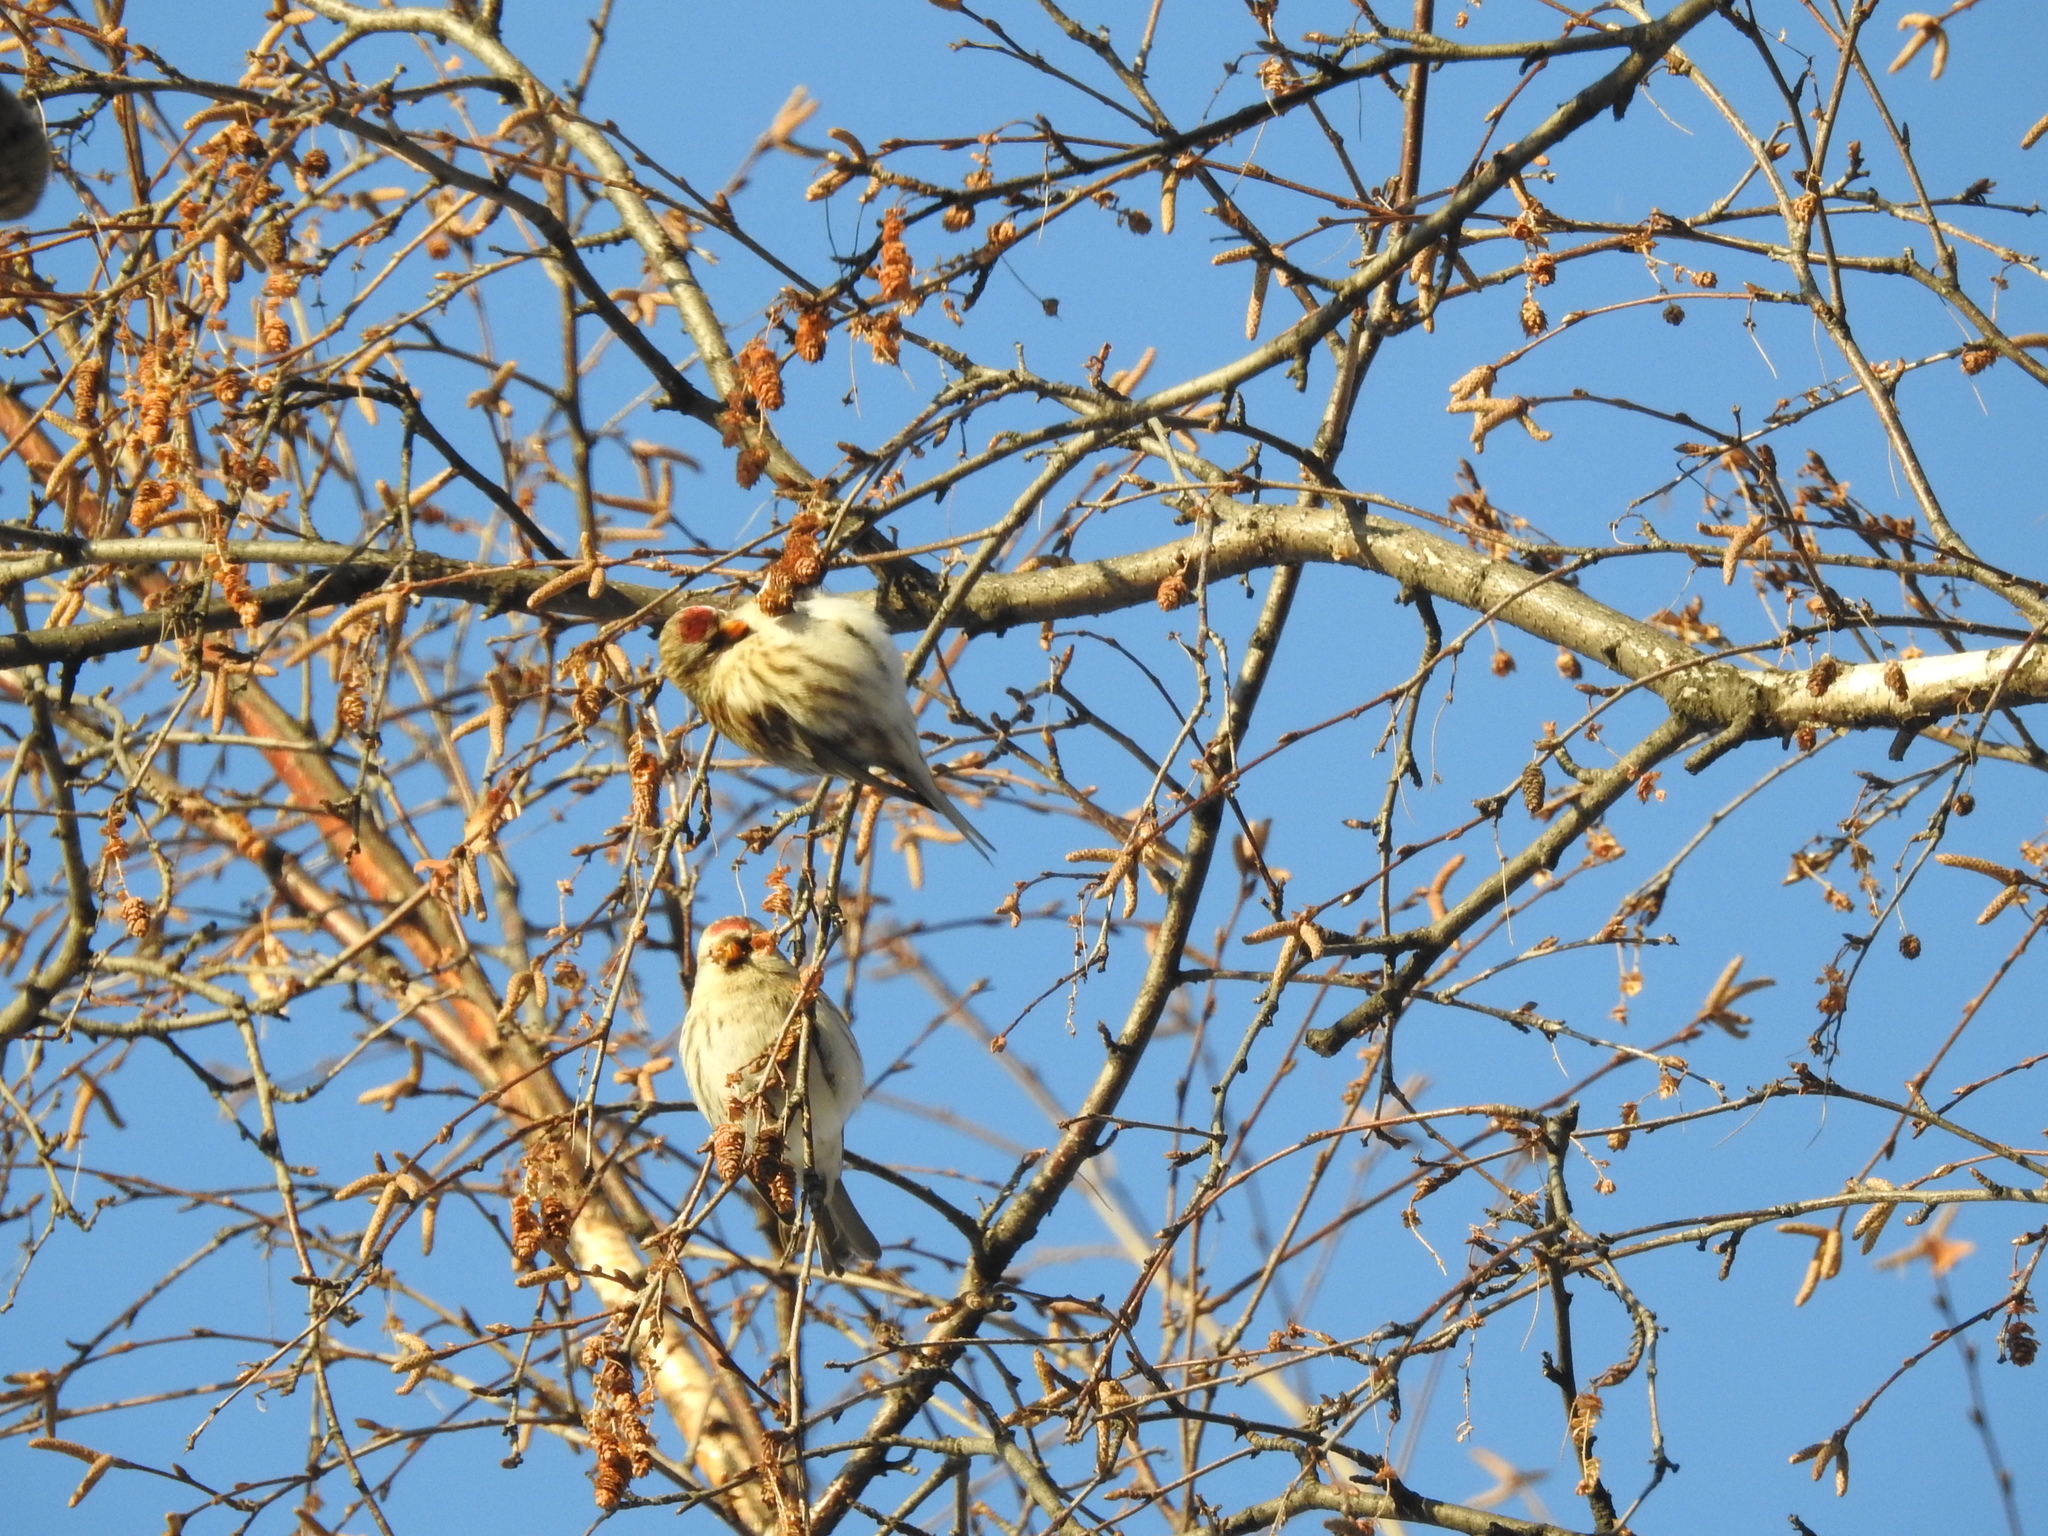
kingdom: Animalia
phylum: Chordata
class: Aves
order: Passeriformes
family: Fringillidae
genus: Acanthis
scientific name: Acanthis flammea
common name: Common redpoll
